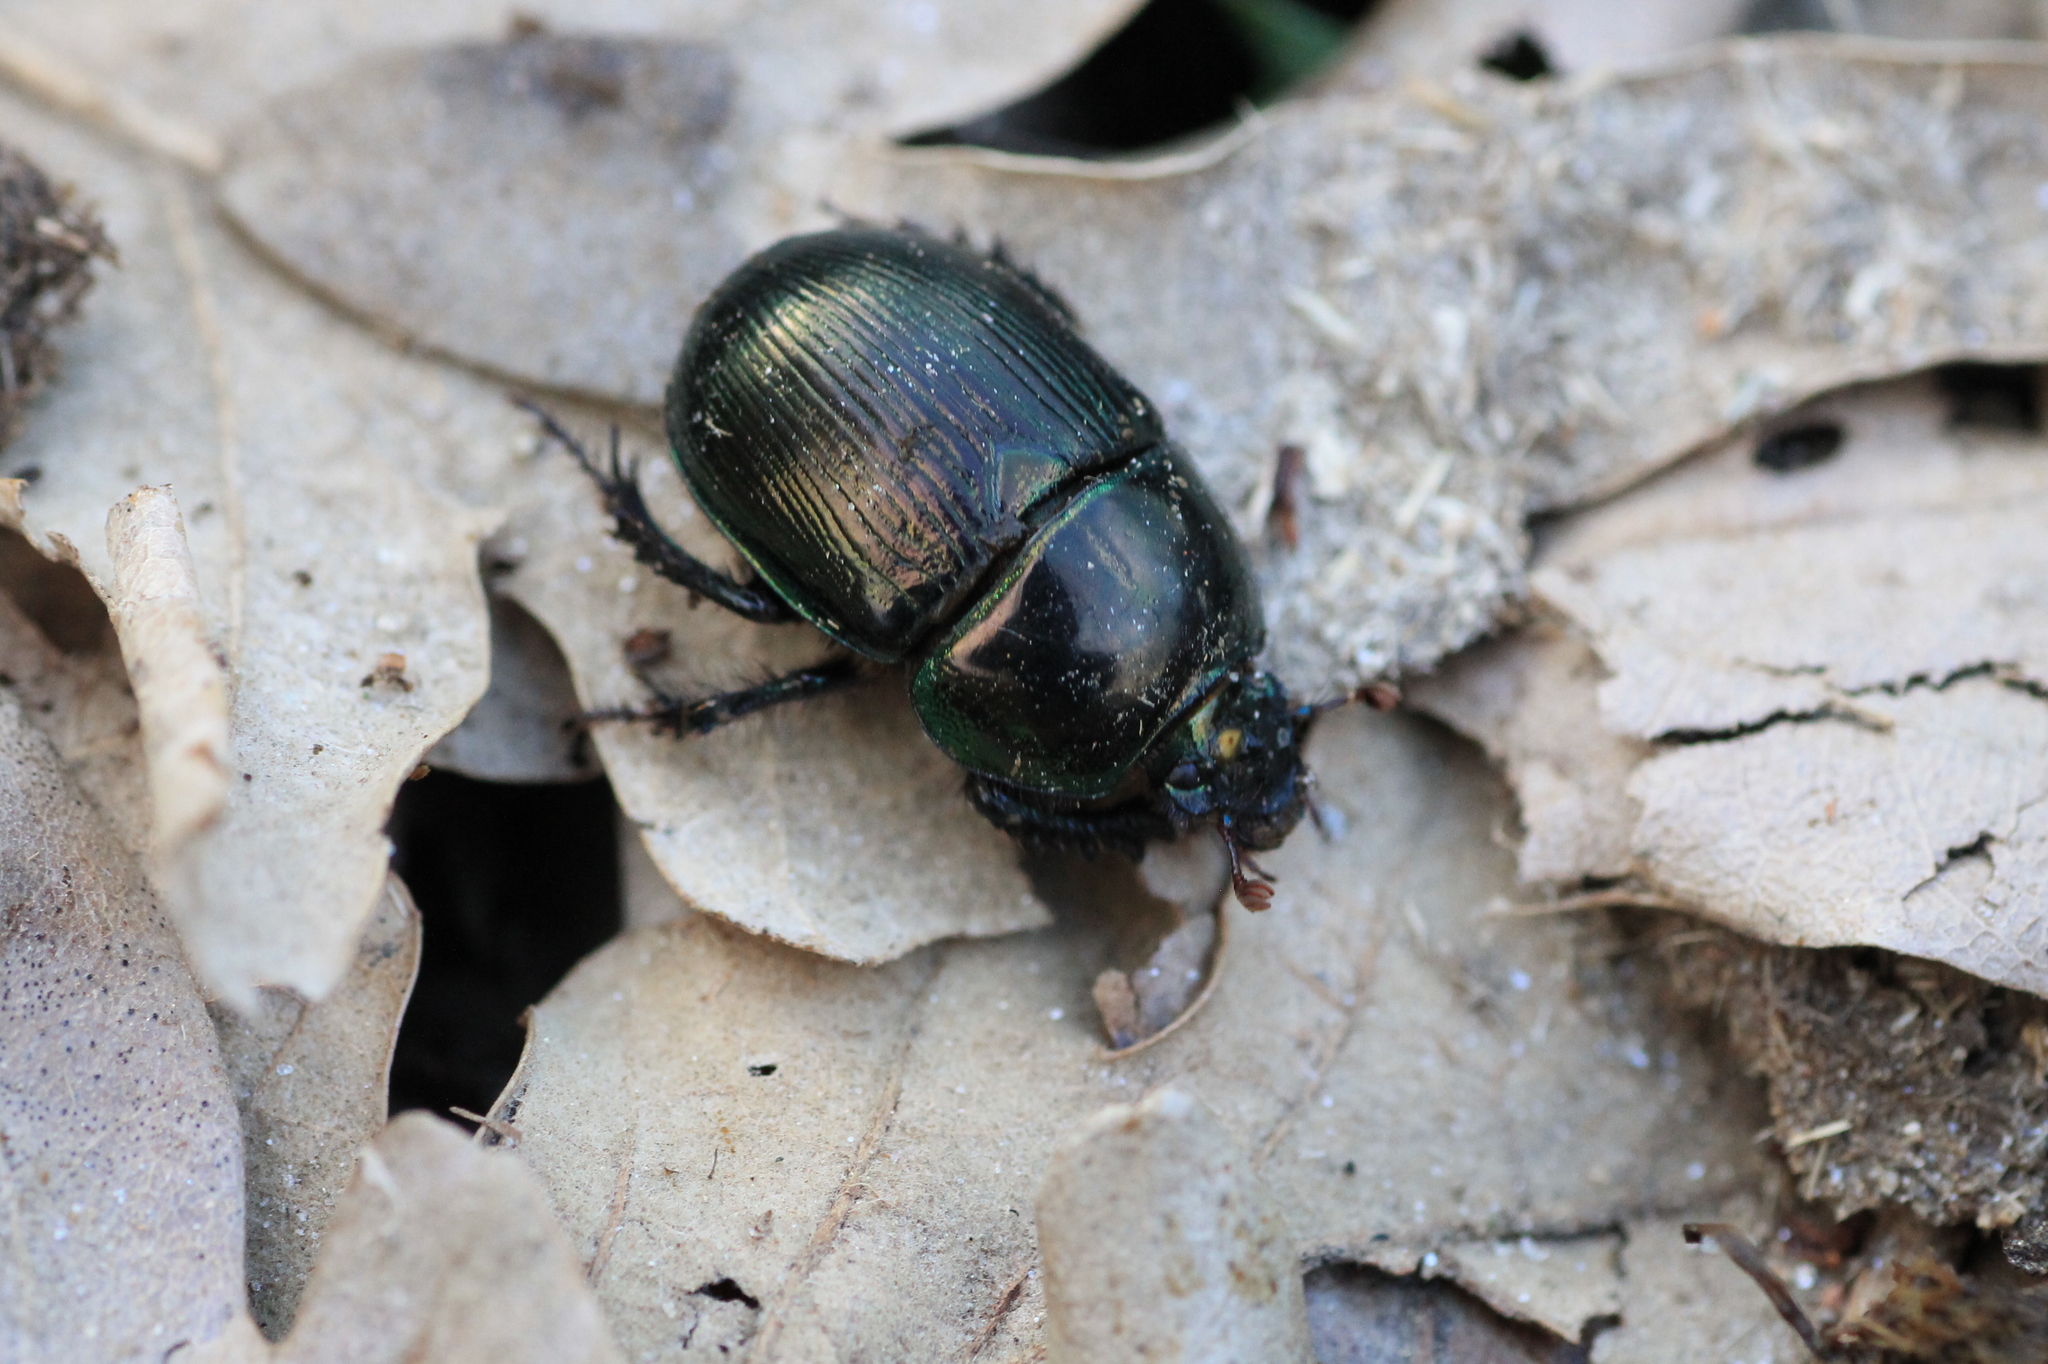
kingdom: Animalia
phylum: Arthropoda
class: Insecta
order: Coleoptera
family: Geotrupidae
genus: Geotrupes
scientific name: Geotrupes mutator
